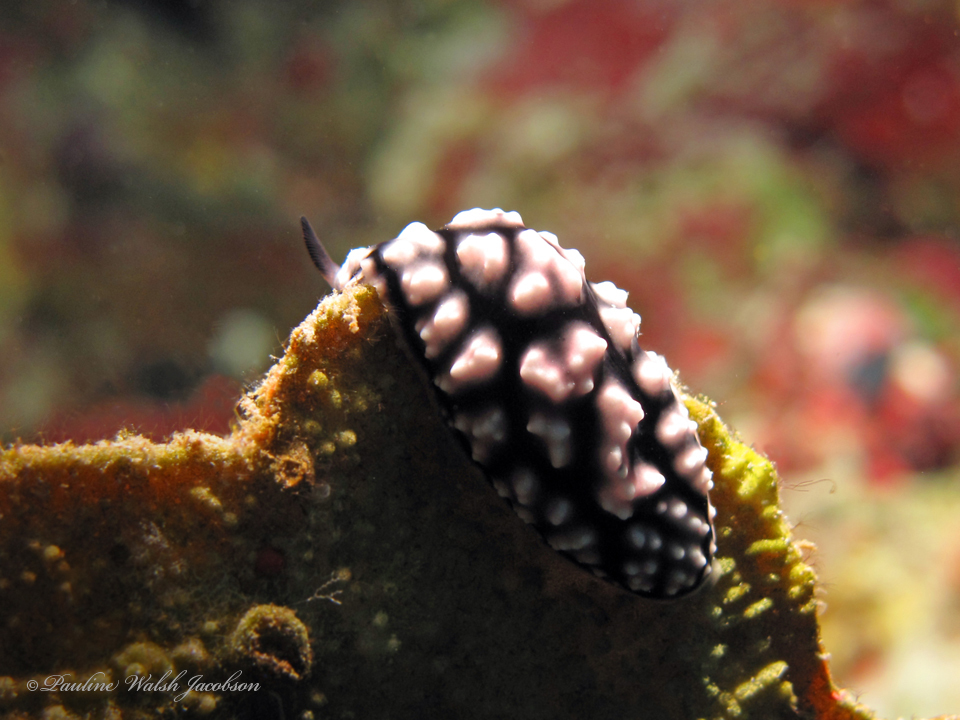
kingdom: Animalia
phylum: Mollusca
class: Gastropoda
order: Nudibranchia
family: Phyllidiidae
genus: Phyllidiella
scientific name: Phyllidiella pustulosa
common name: Pustular phyllidia
